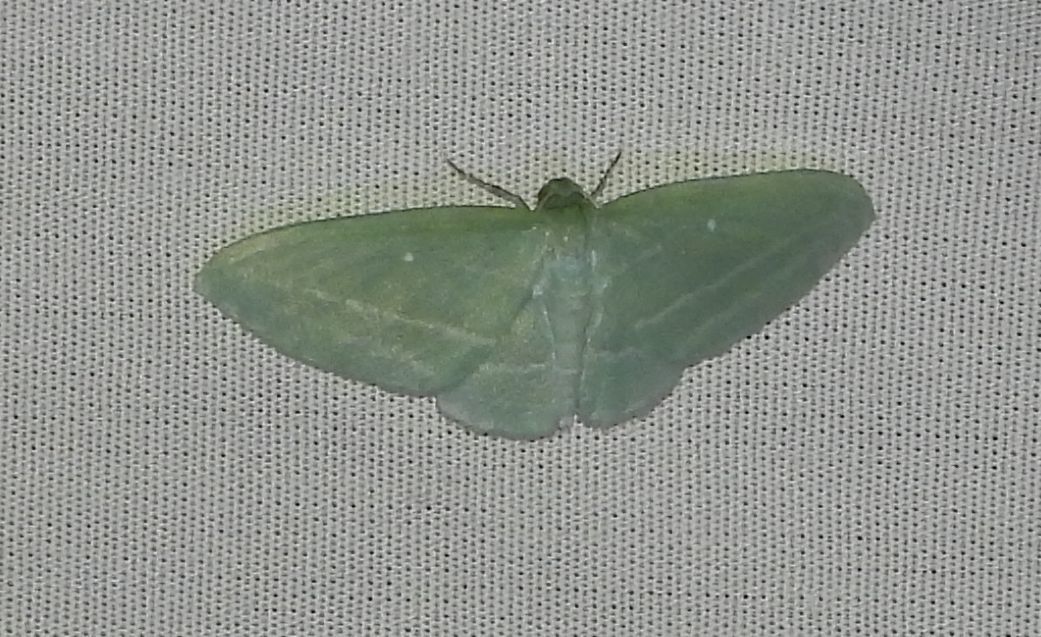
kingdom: Animalia
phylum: Arthropoda
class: Insecta
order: Lepidoptera
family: Geometridae
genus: Dyspteris
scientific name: Dyspteris abortivaria
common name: Bad-wing
